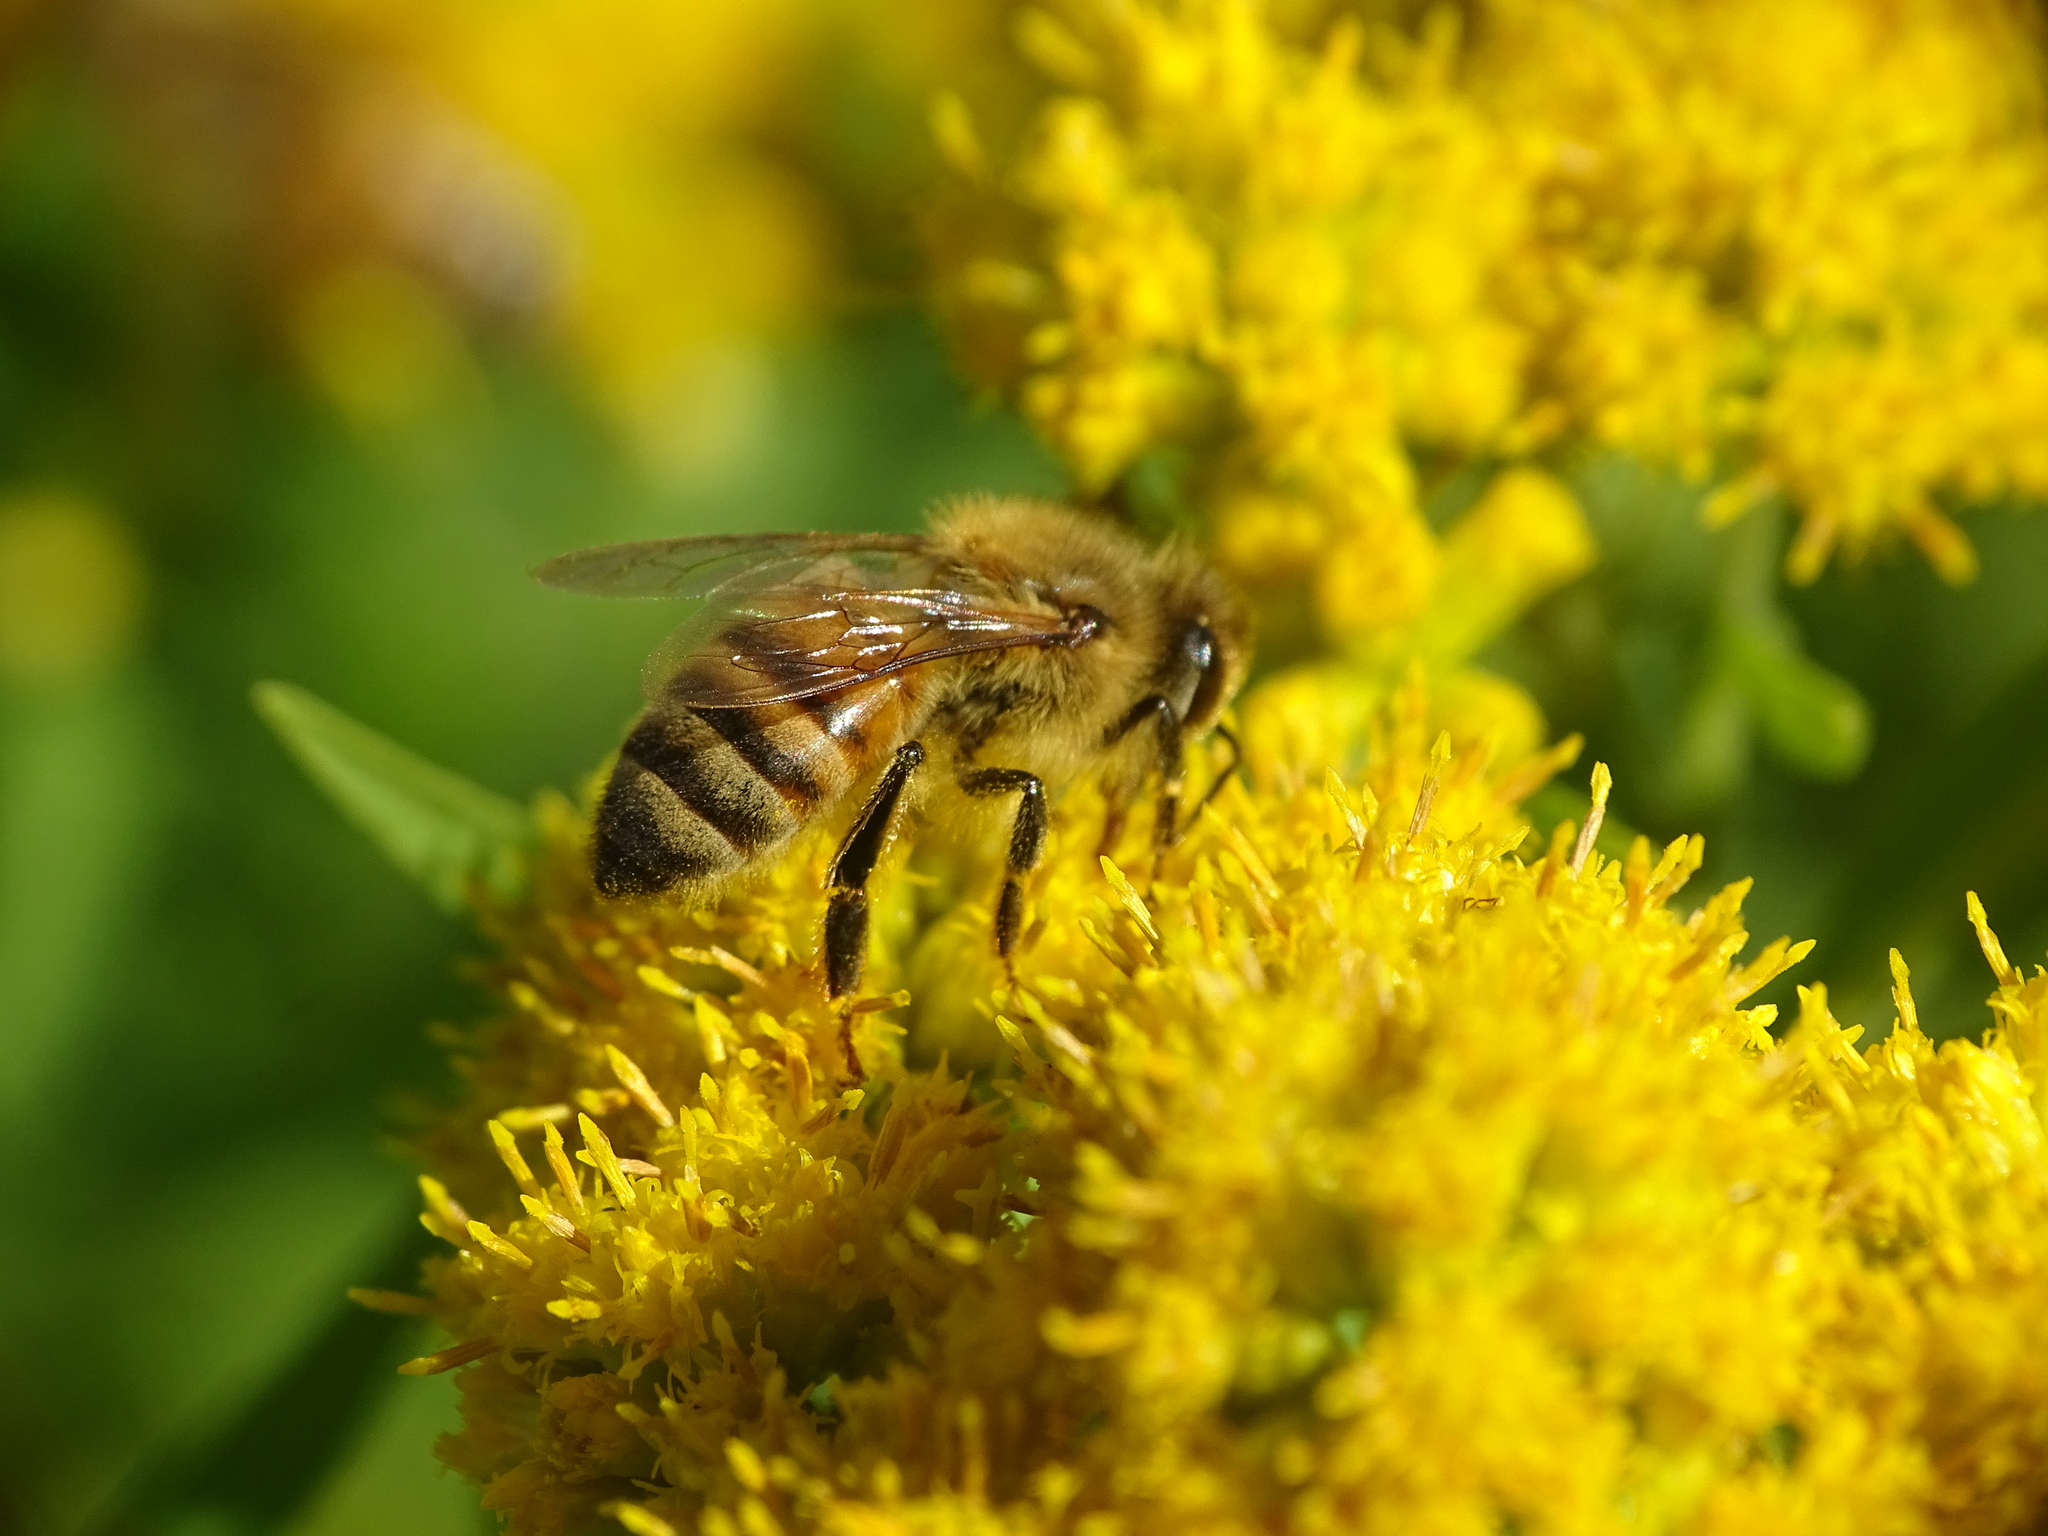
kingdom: Animalia
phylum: Arthropoda
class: Insecta
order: Hymenoptera
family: Apidae
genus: Apis
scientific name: Apis mellifera
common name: Honey bee
